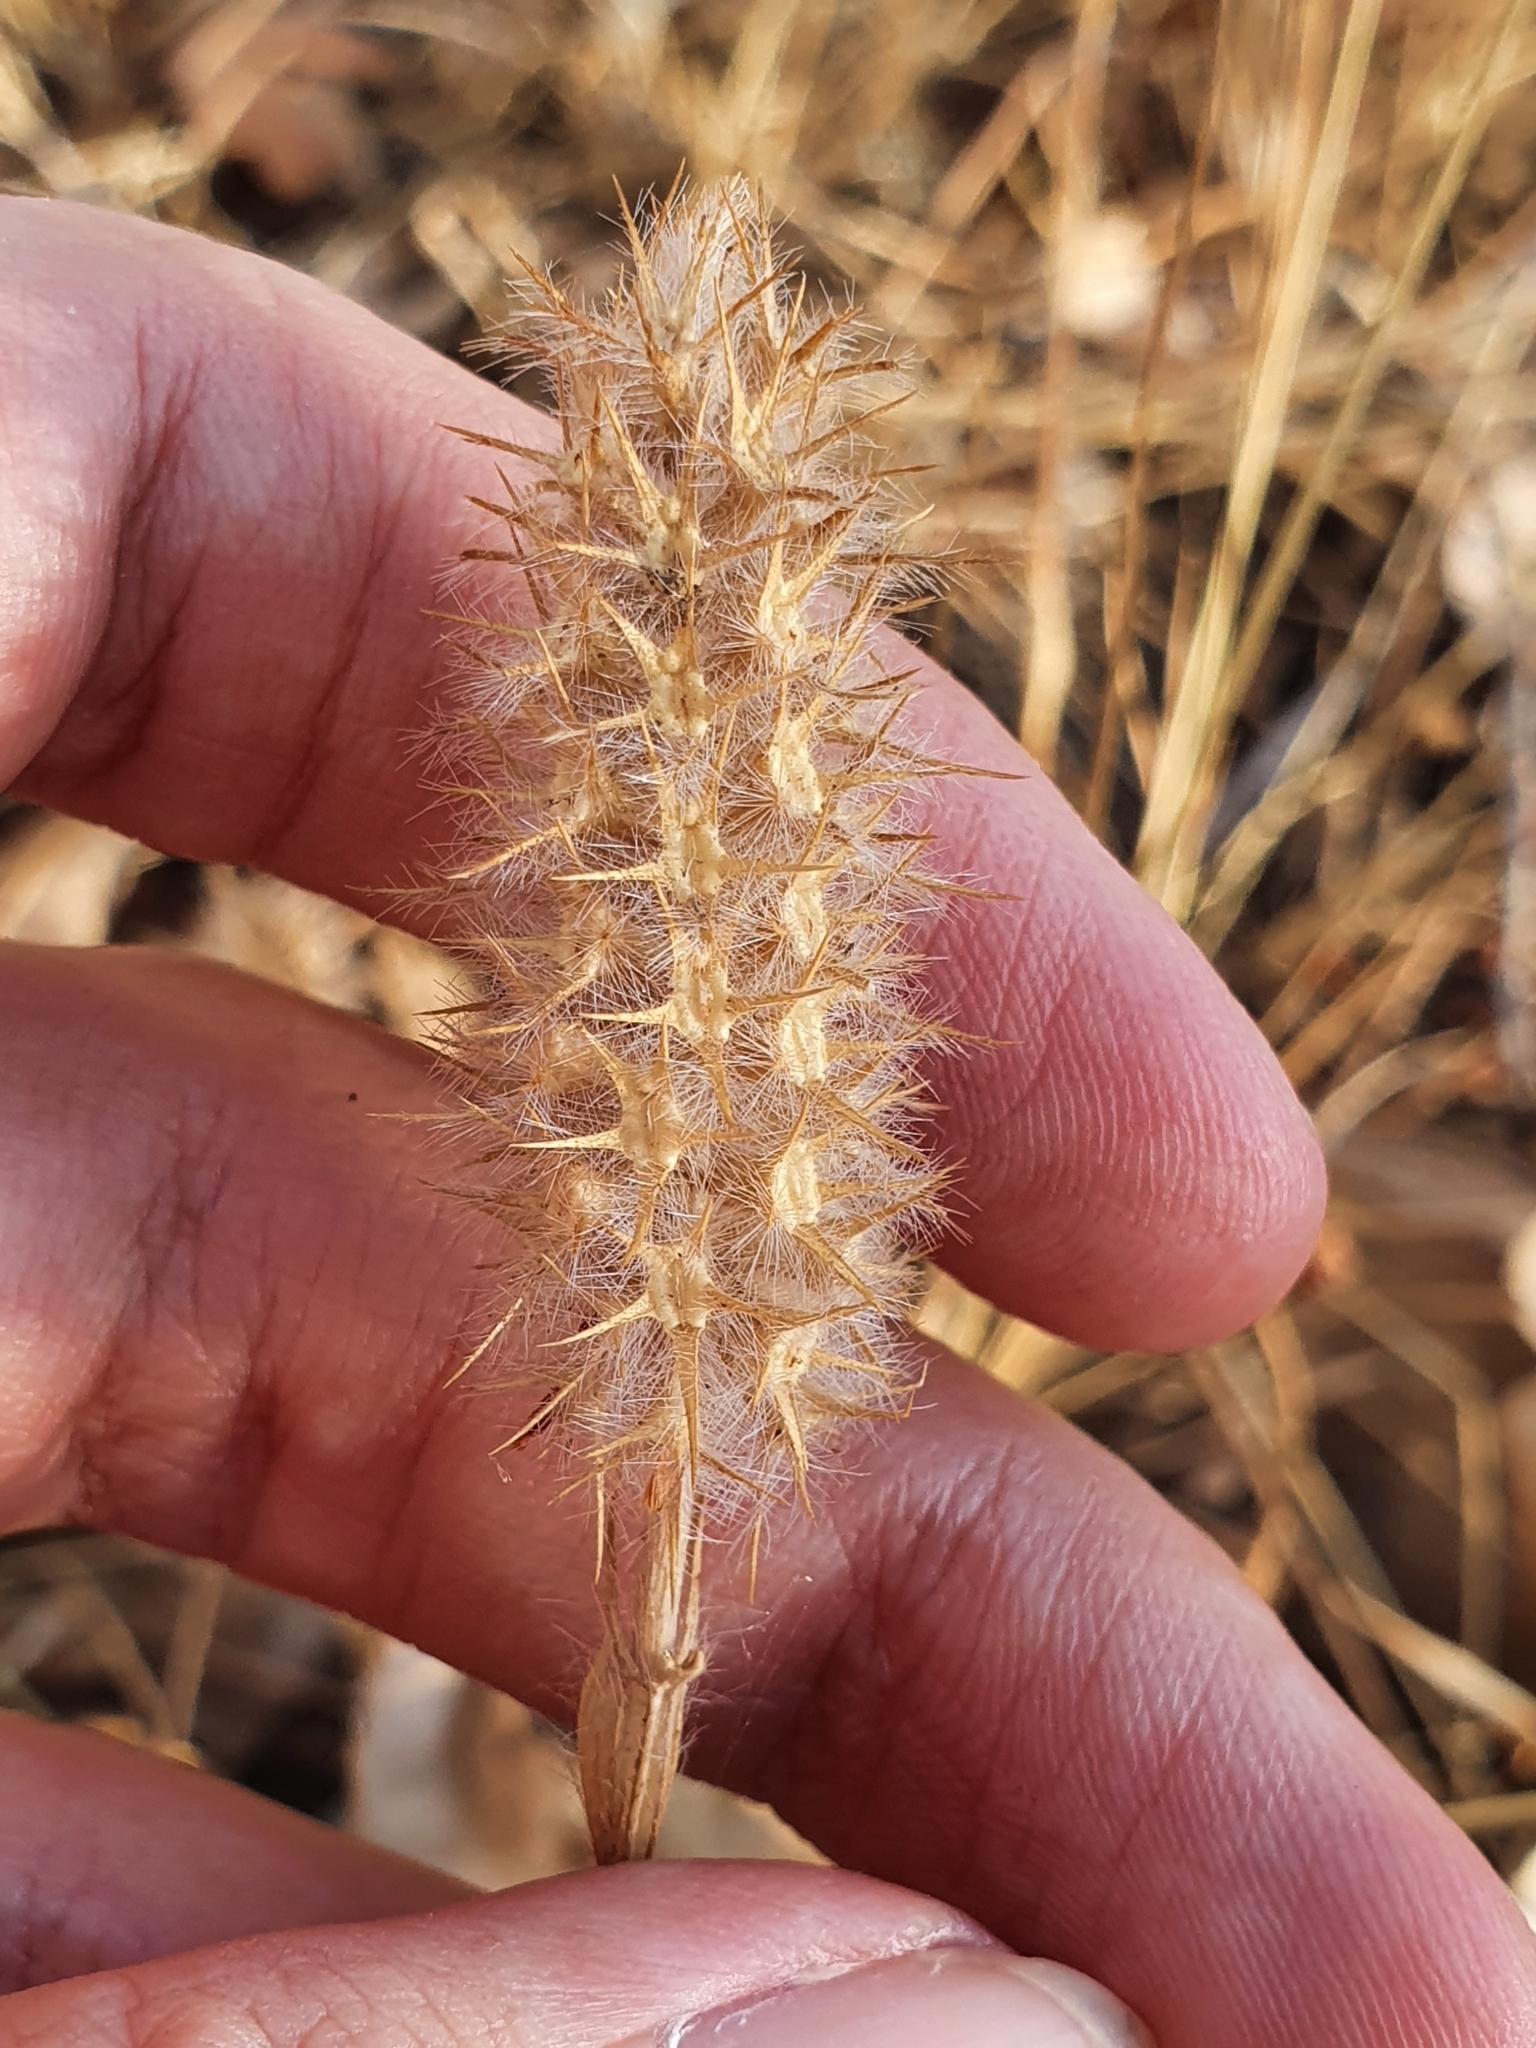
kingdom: Plantae
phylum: Tracheophyta
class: Magnoliopsida
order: Fabales
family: Fabaceae
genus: Trifolium
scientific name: Trifolium angustifolium
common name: Narrow clover
